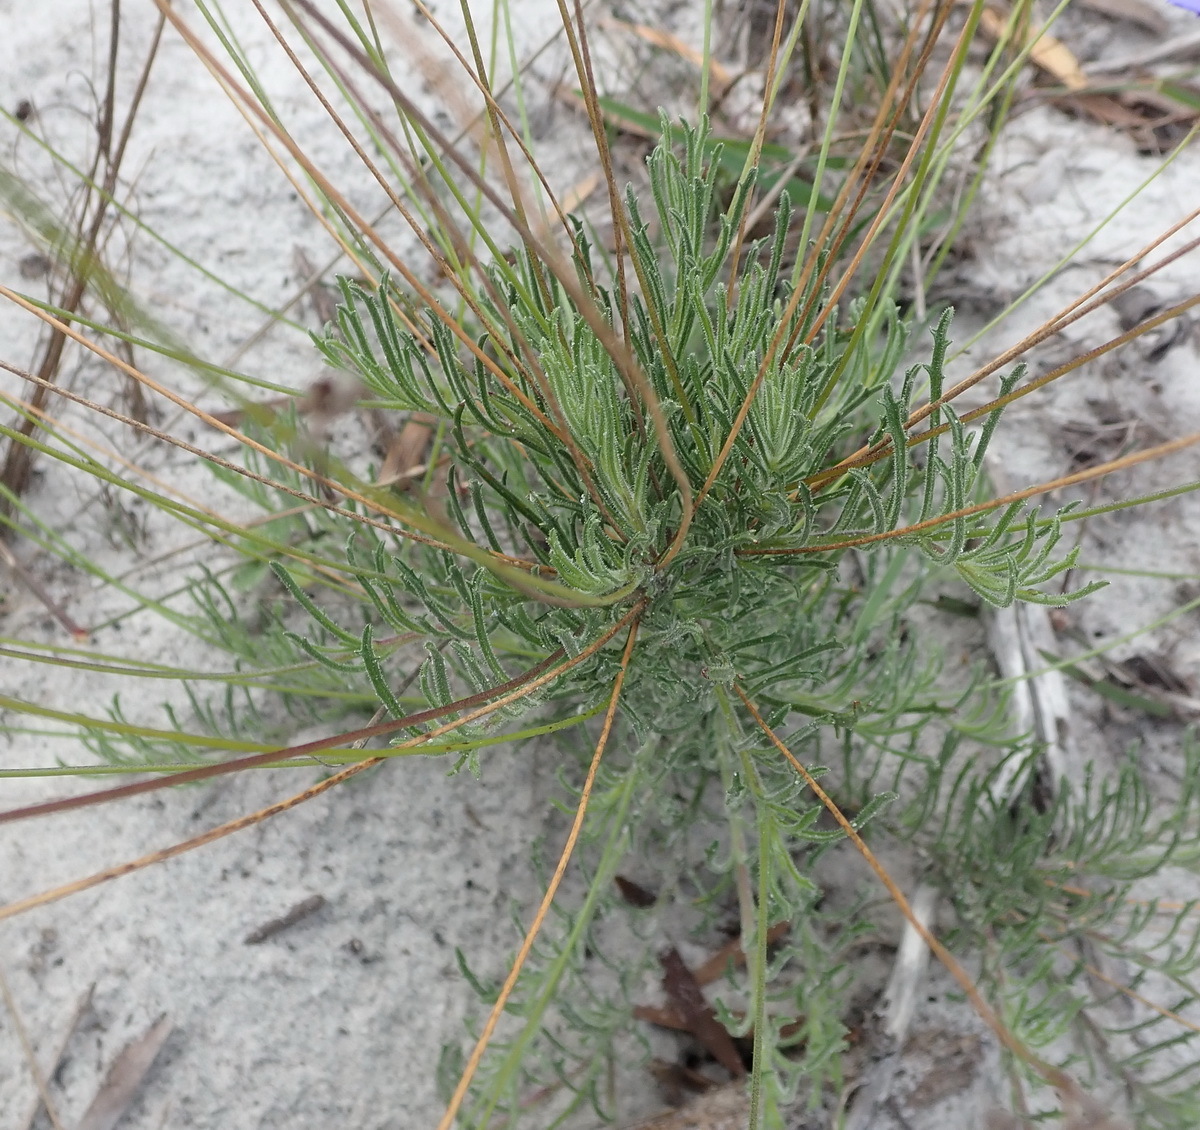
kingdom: Plantae
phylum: Tracheophyta
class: Magnoliopsida
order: Asterales
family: Campanulaceae
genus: Lobelia
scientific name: Lobelia tomentosa
